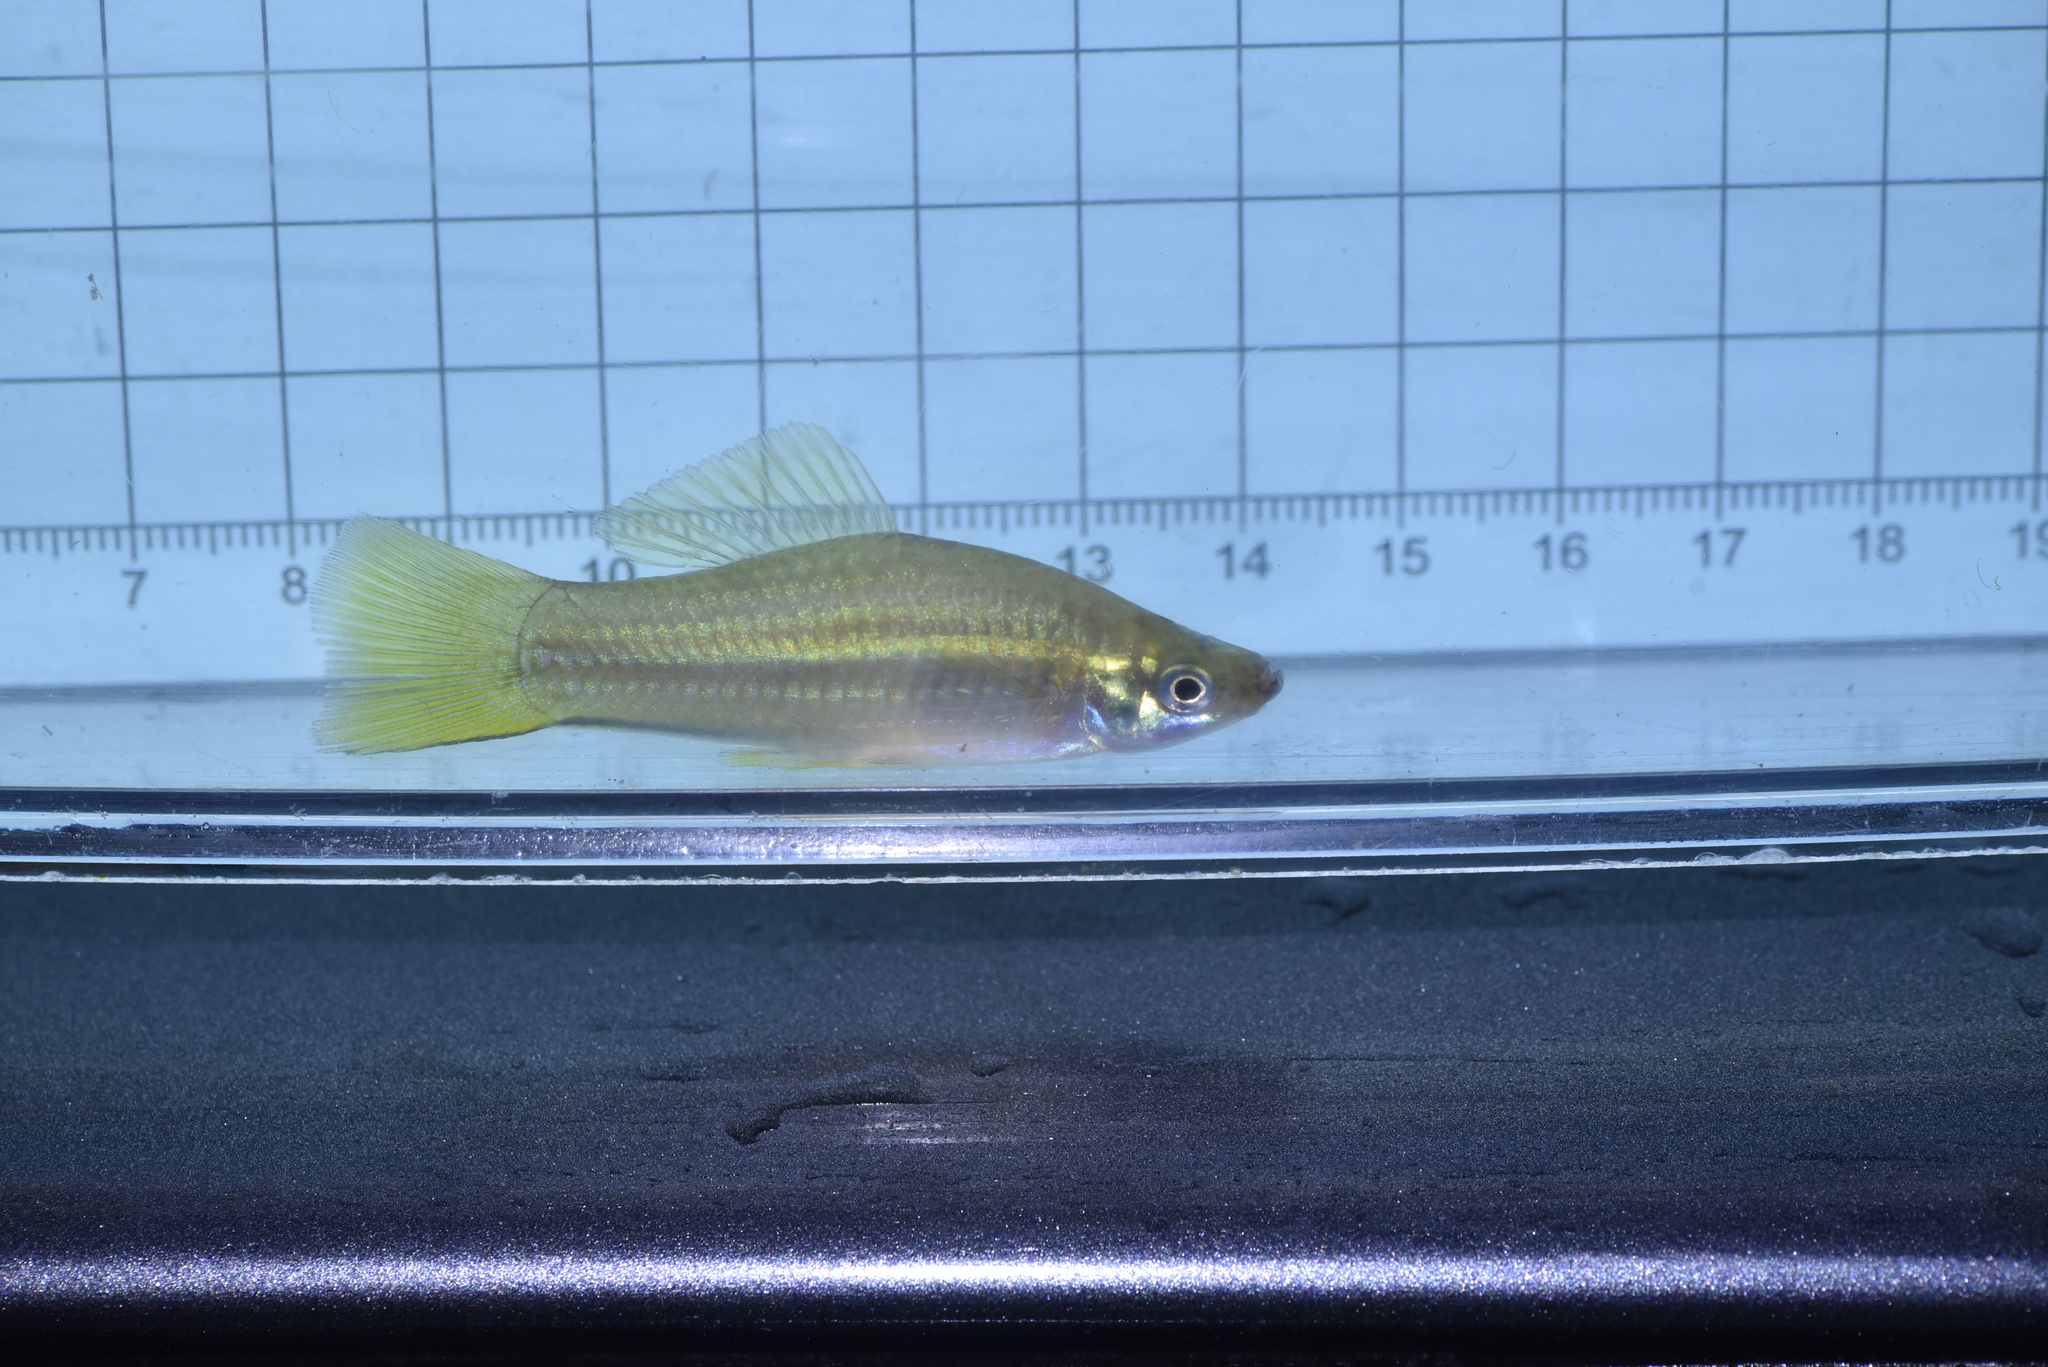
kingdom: Animalia
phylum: Chordata
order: Cyprinodontiformes
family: Poeciliidae
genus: Xiphophorus
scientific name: Xiphophorus hellerii
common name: Green swordtail
